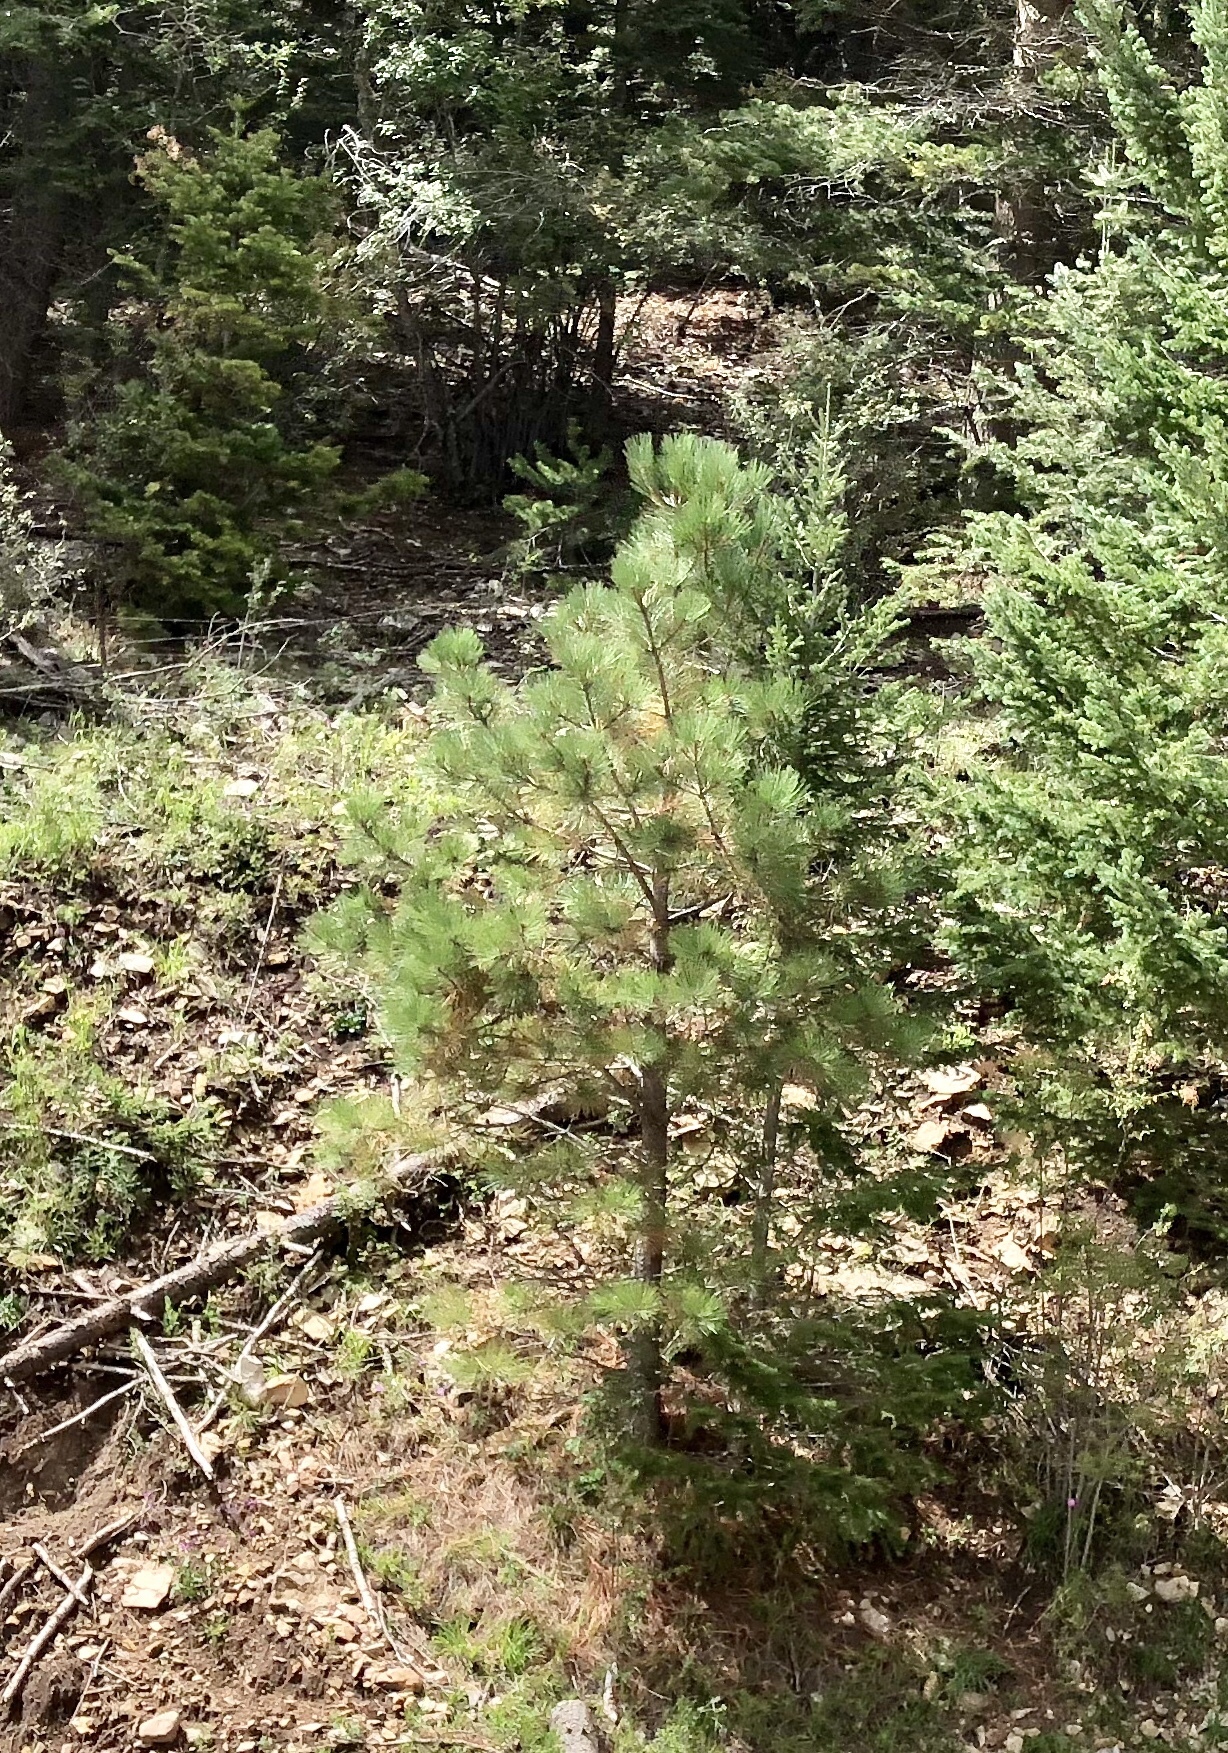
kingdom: Plantae
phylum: Tracheophyta
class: Pinopsida
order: Pinales
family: Pinaceae
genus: Pinus
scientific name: Pinus ponderosa
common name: Western yellow-pine
